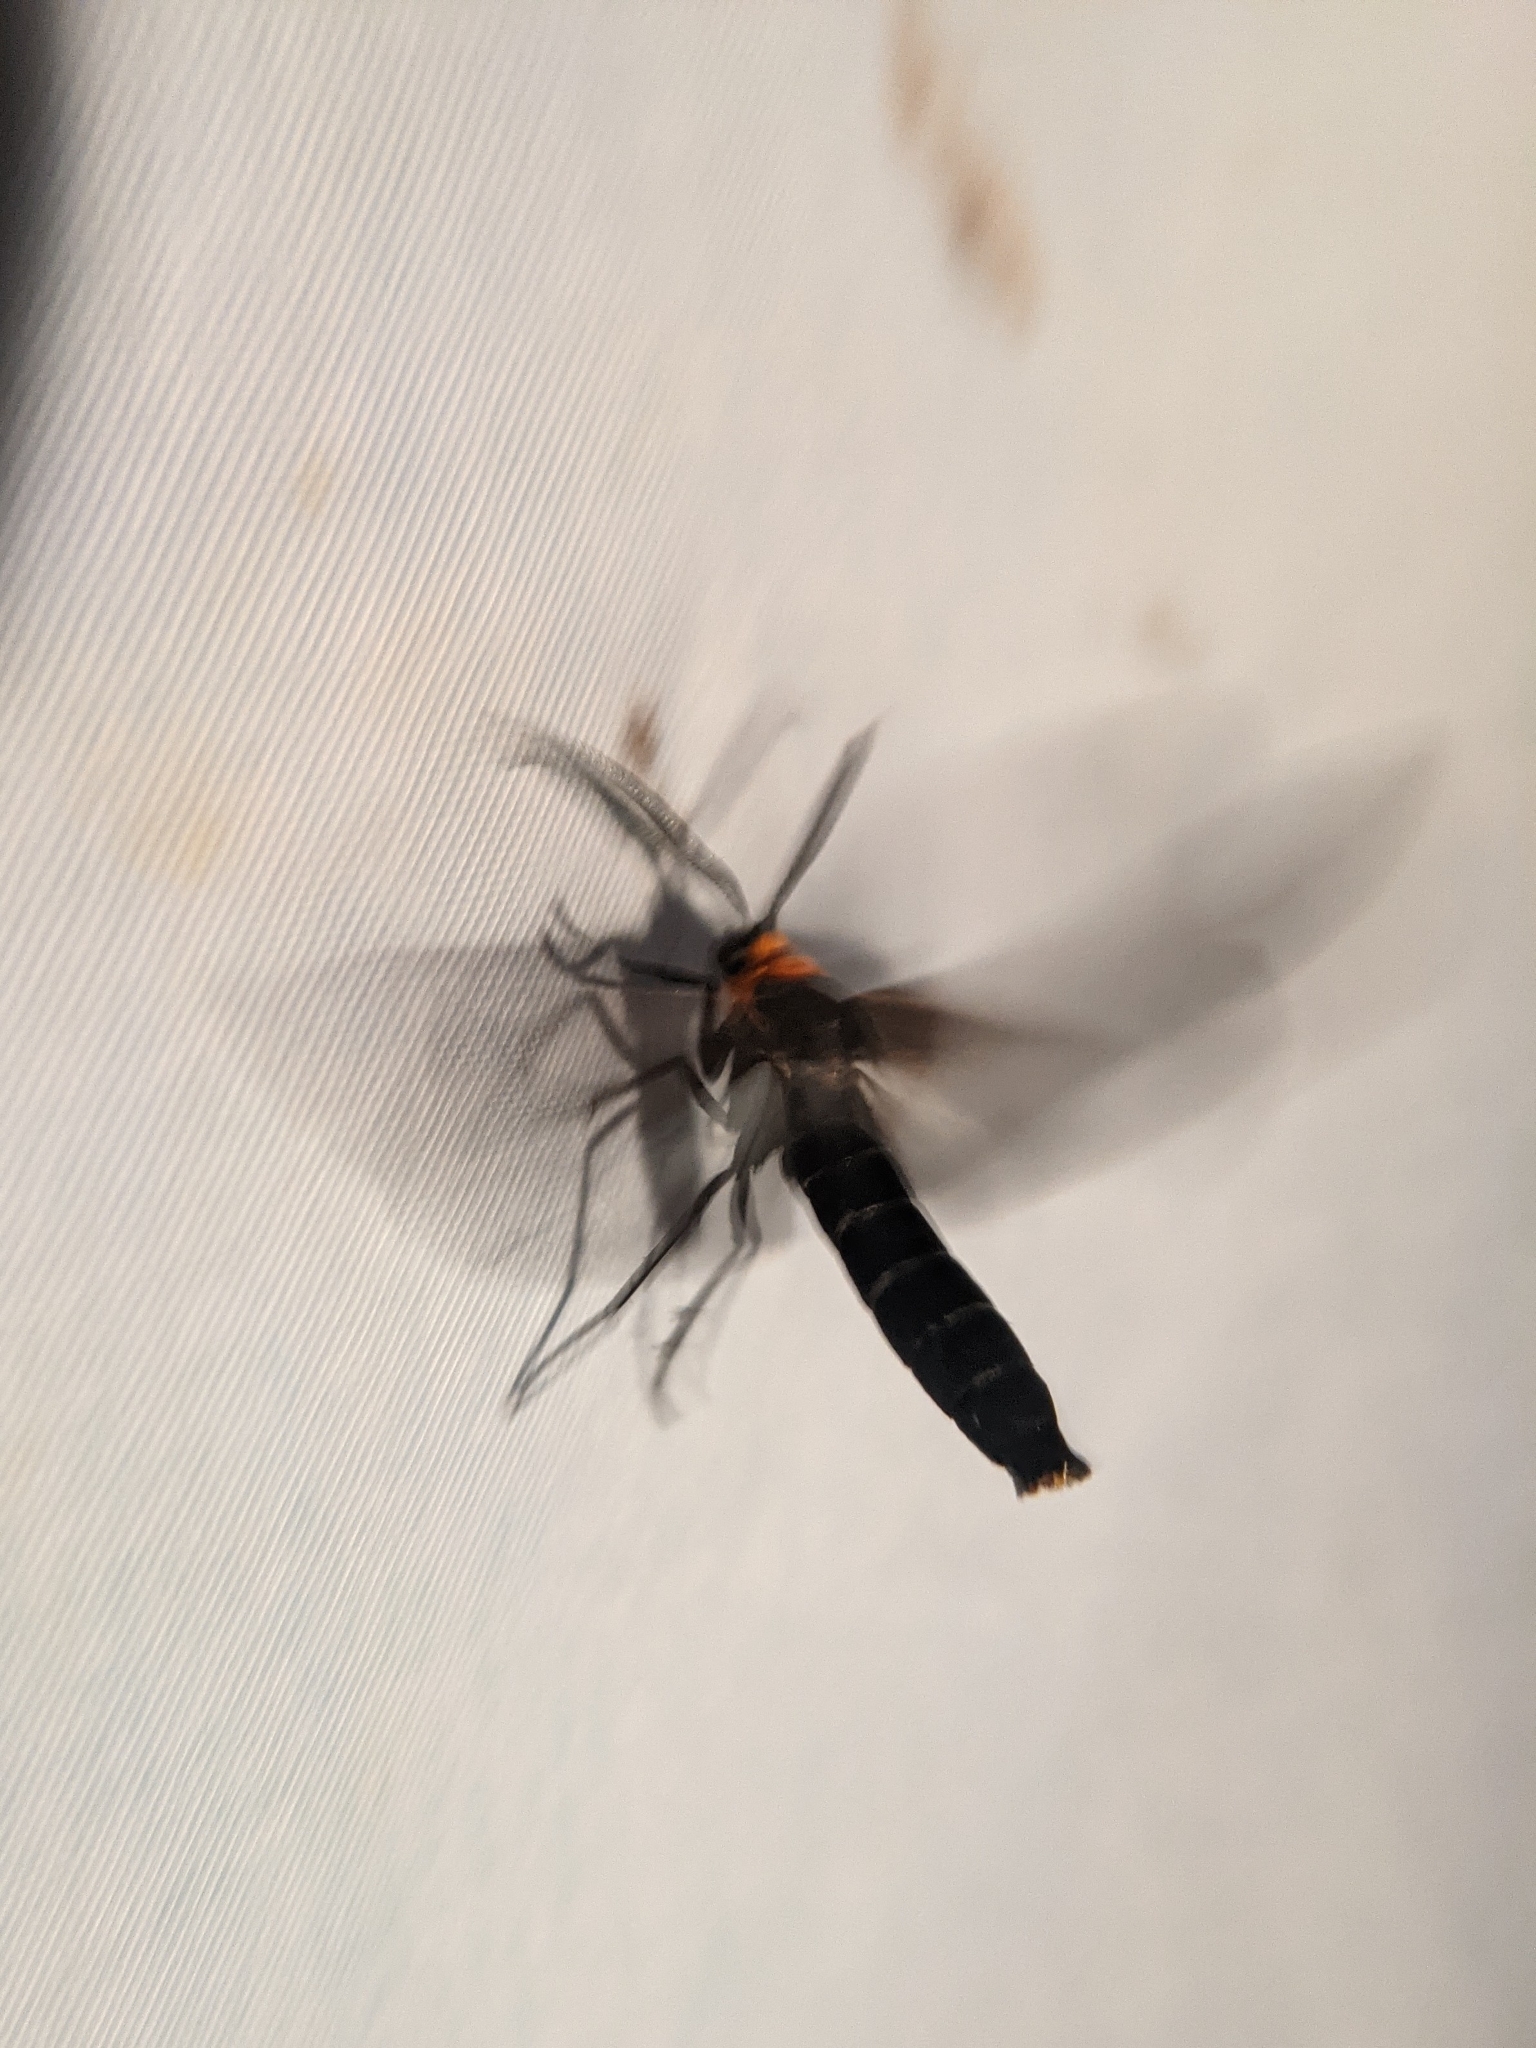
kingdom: Animalia
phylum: Arthropoda
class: Insecta
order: Lepidoptera
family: Erebidae
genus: Cisseps
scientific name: Cisseps fulvicollis
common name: Yellow-collared scape moth
